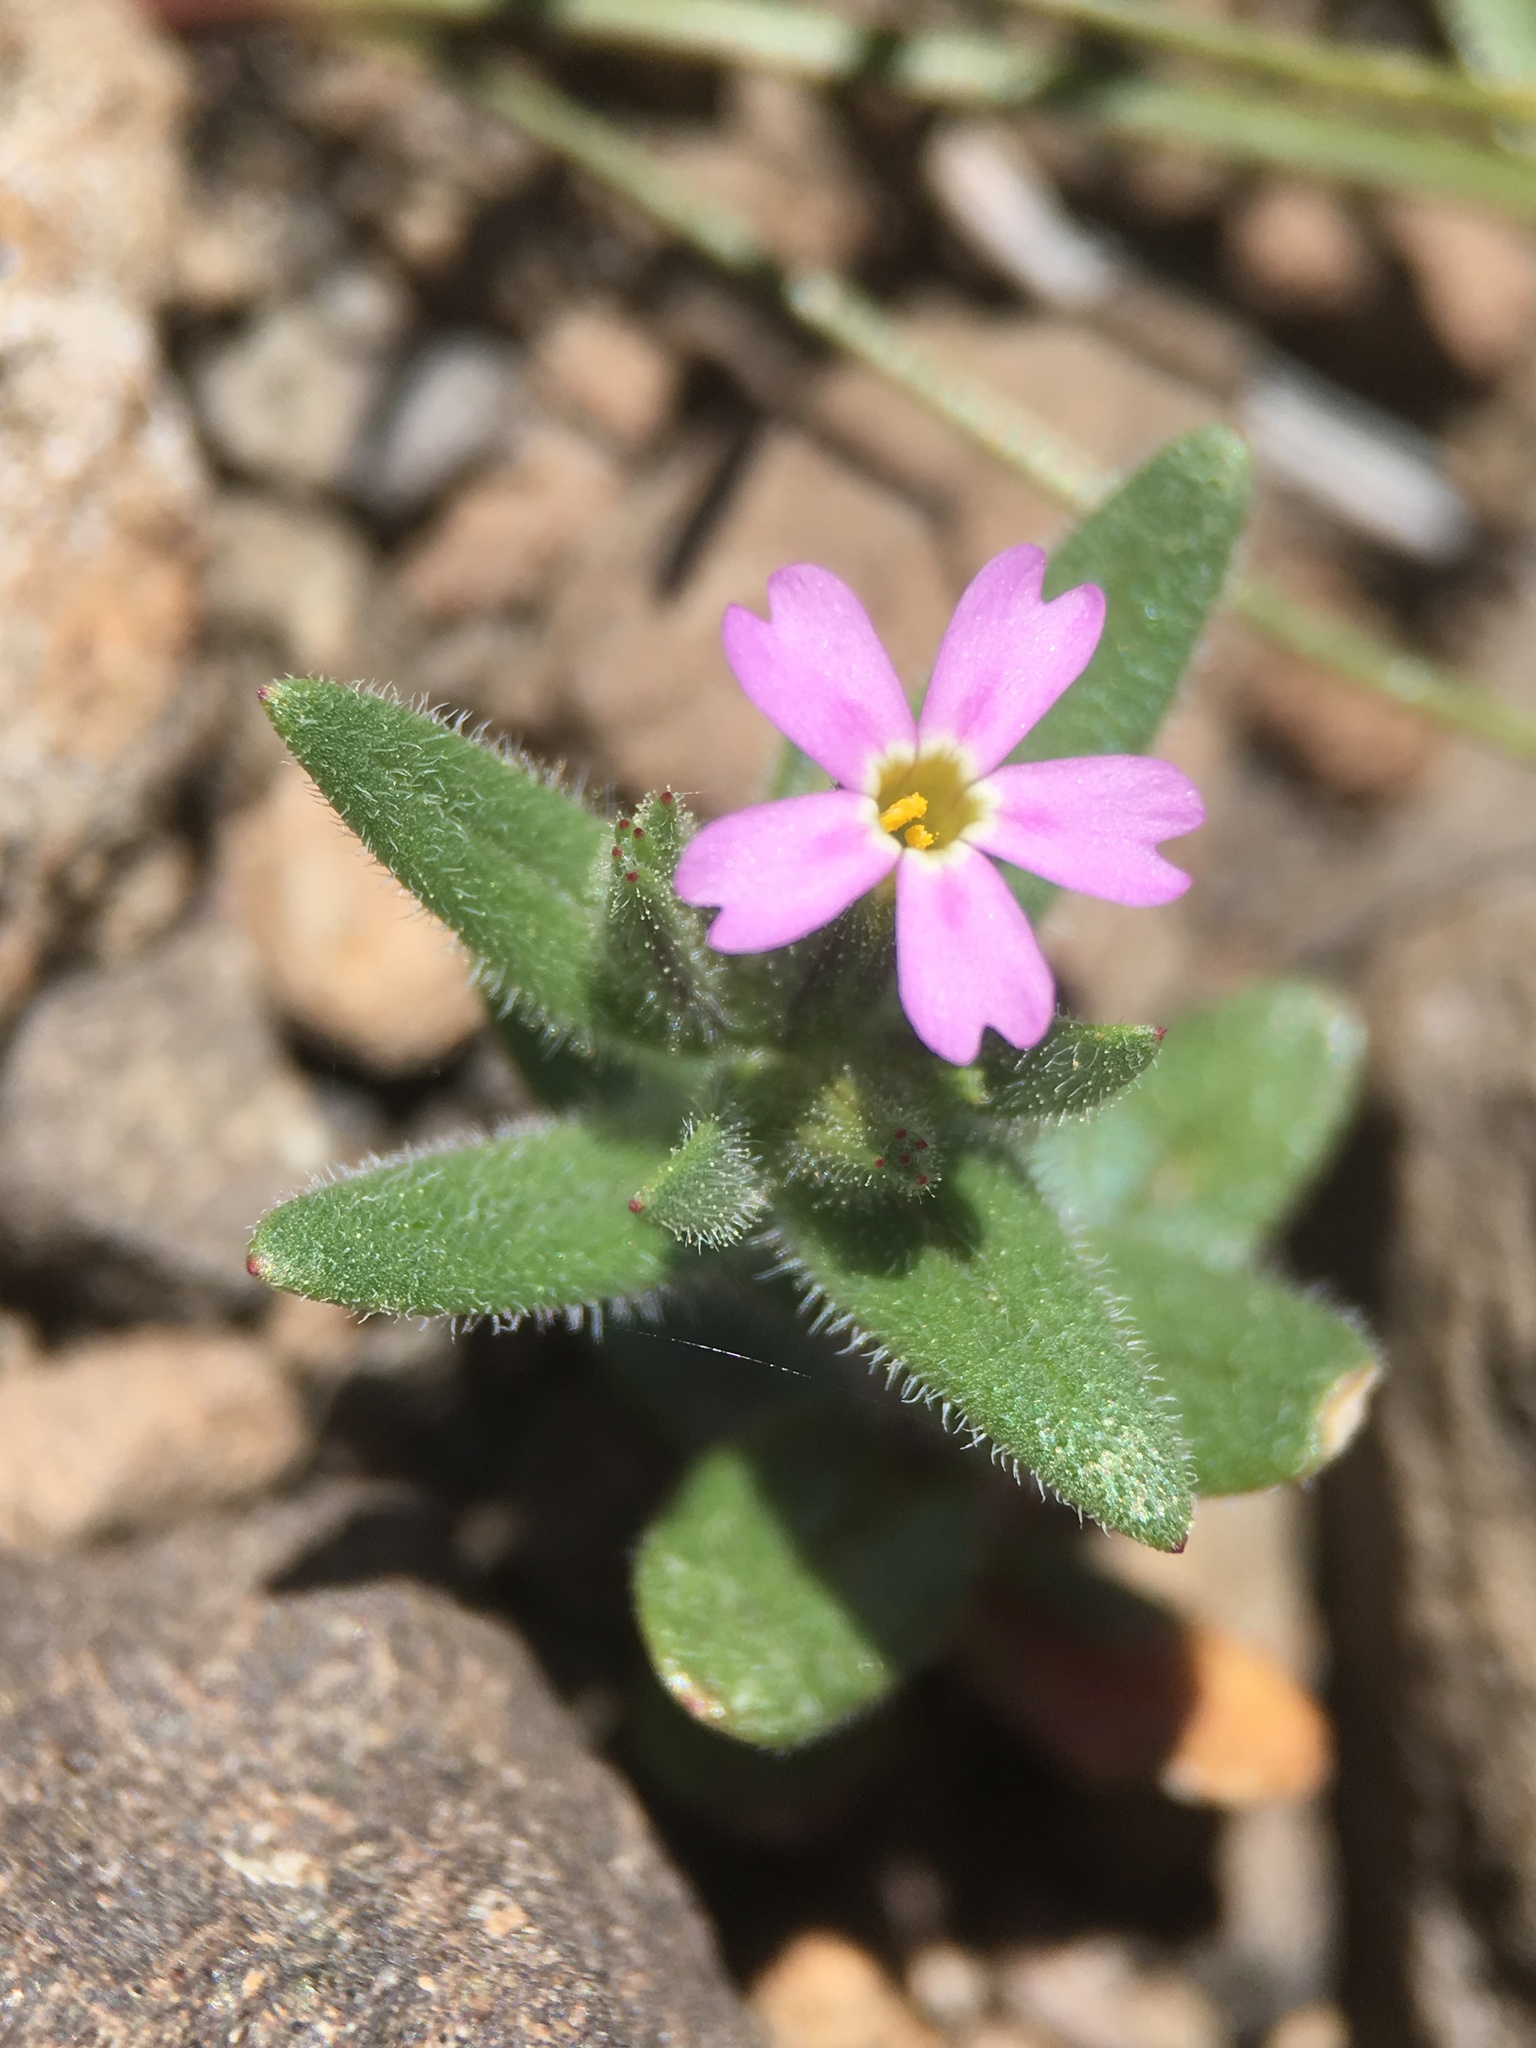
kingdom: Plantae
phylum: Tracheophyta
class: Magnoliopsida
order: Ericales
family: Polemoniaceae
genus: Phlox
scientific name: Phlox gracilis
